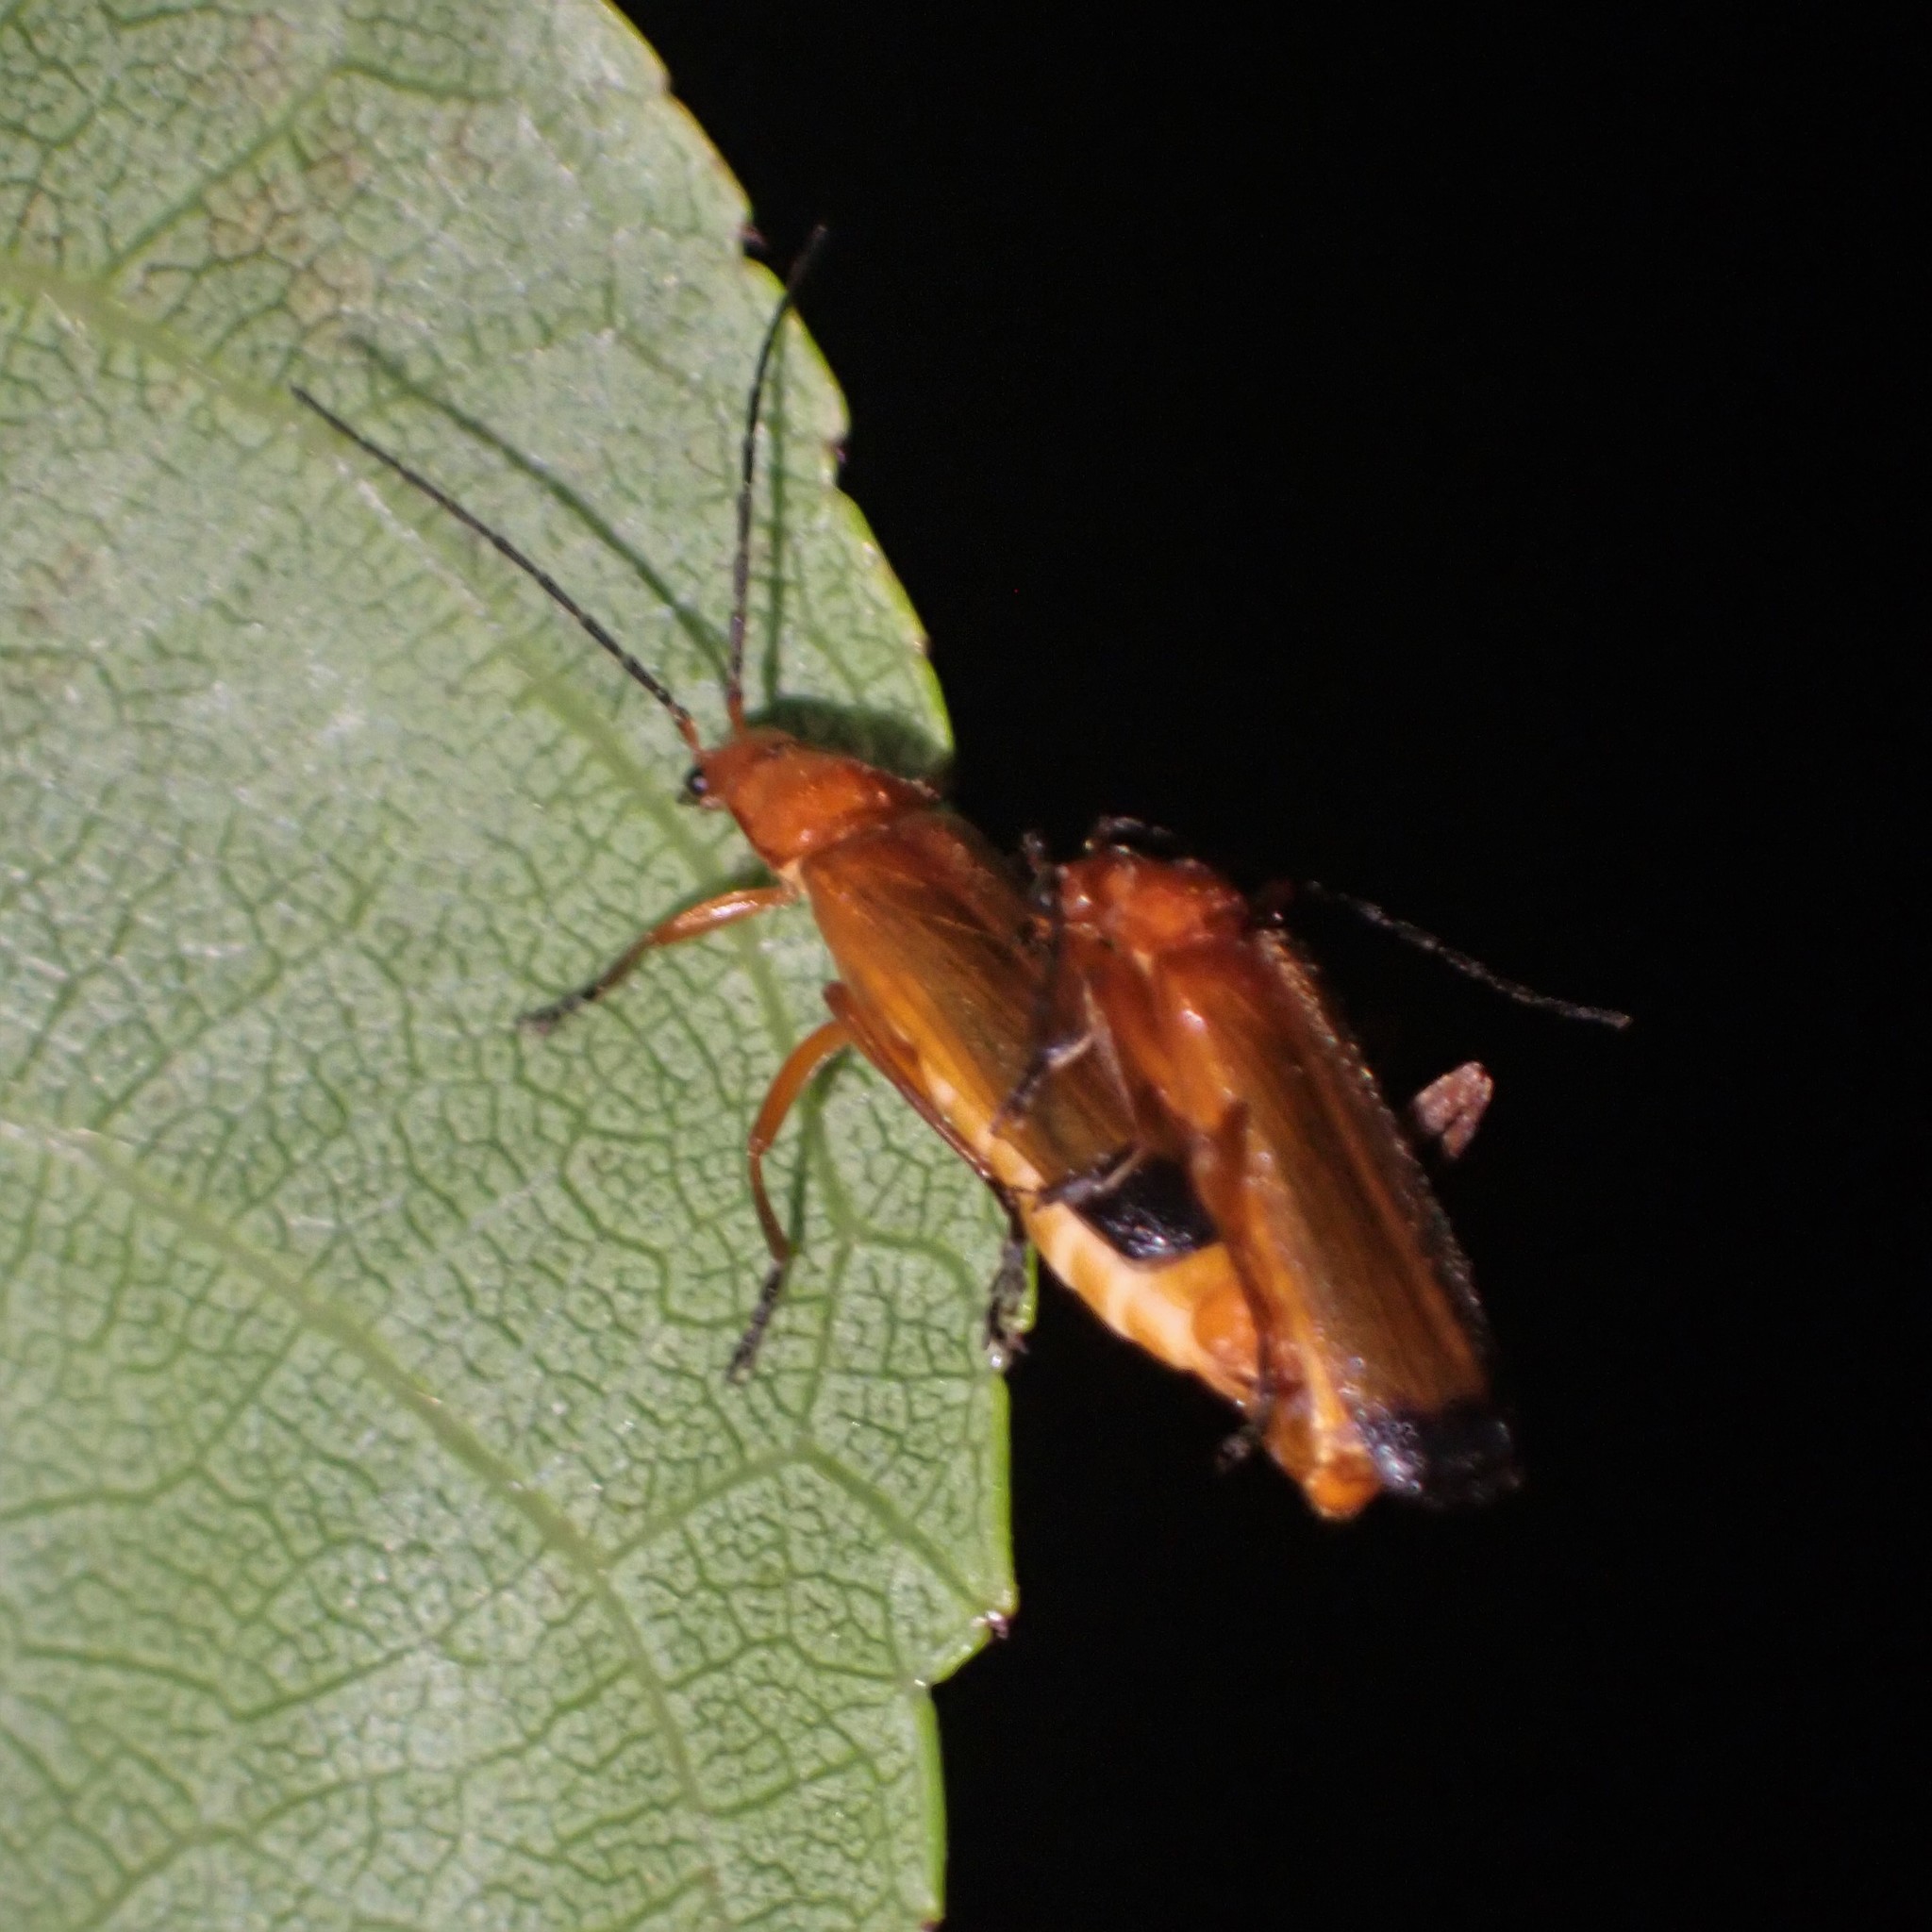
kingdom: Animalia
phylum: Arthropoda
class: Insecta
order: Coleoptera
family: Cantharidae
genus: Rhagonycha
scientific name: Rhagonycha fulva
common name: Common red soldier beetle
